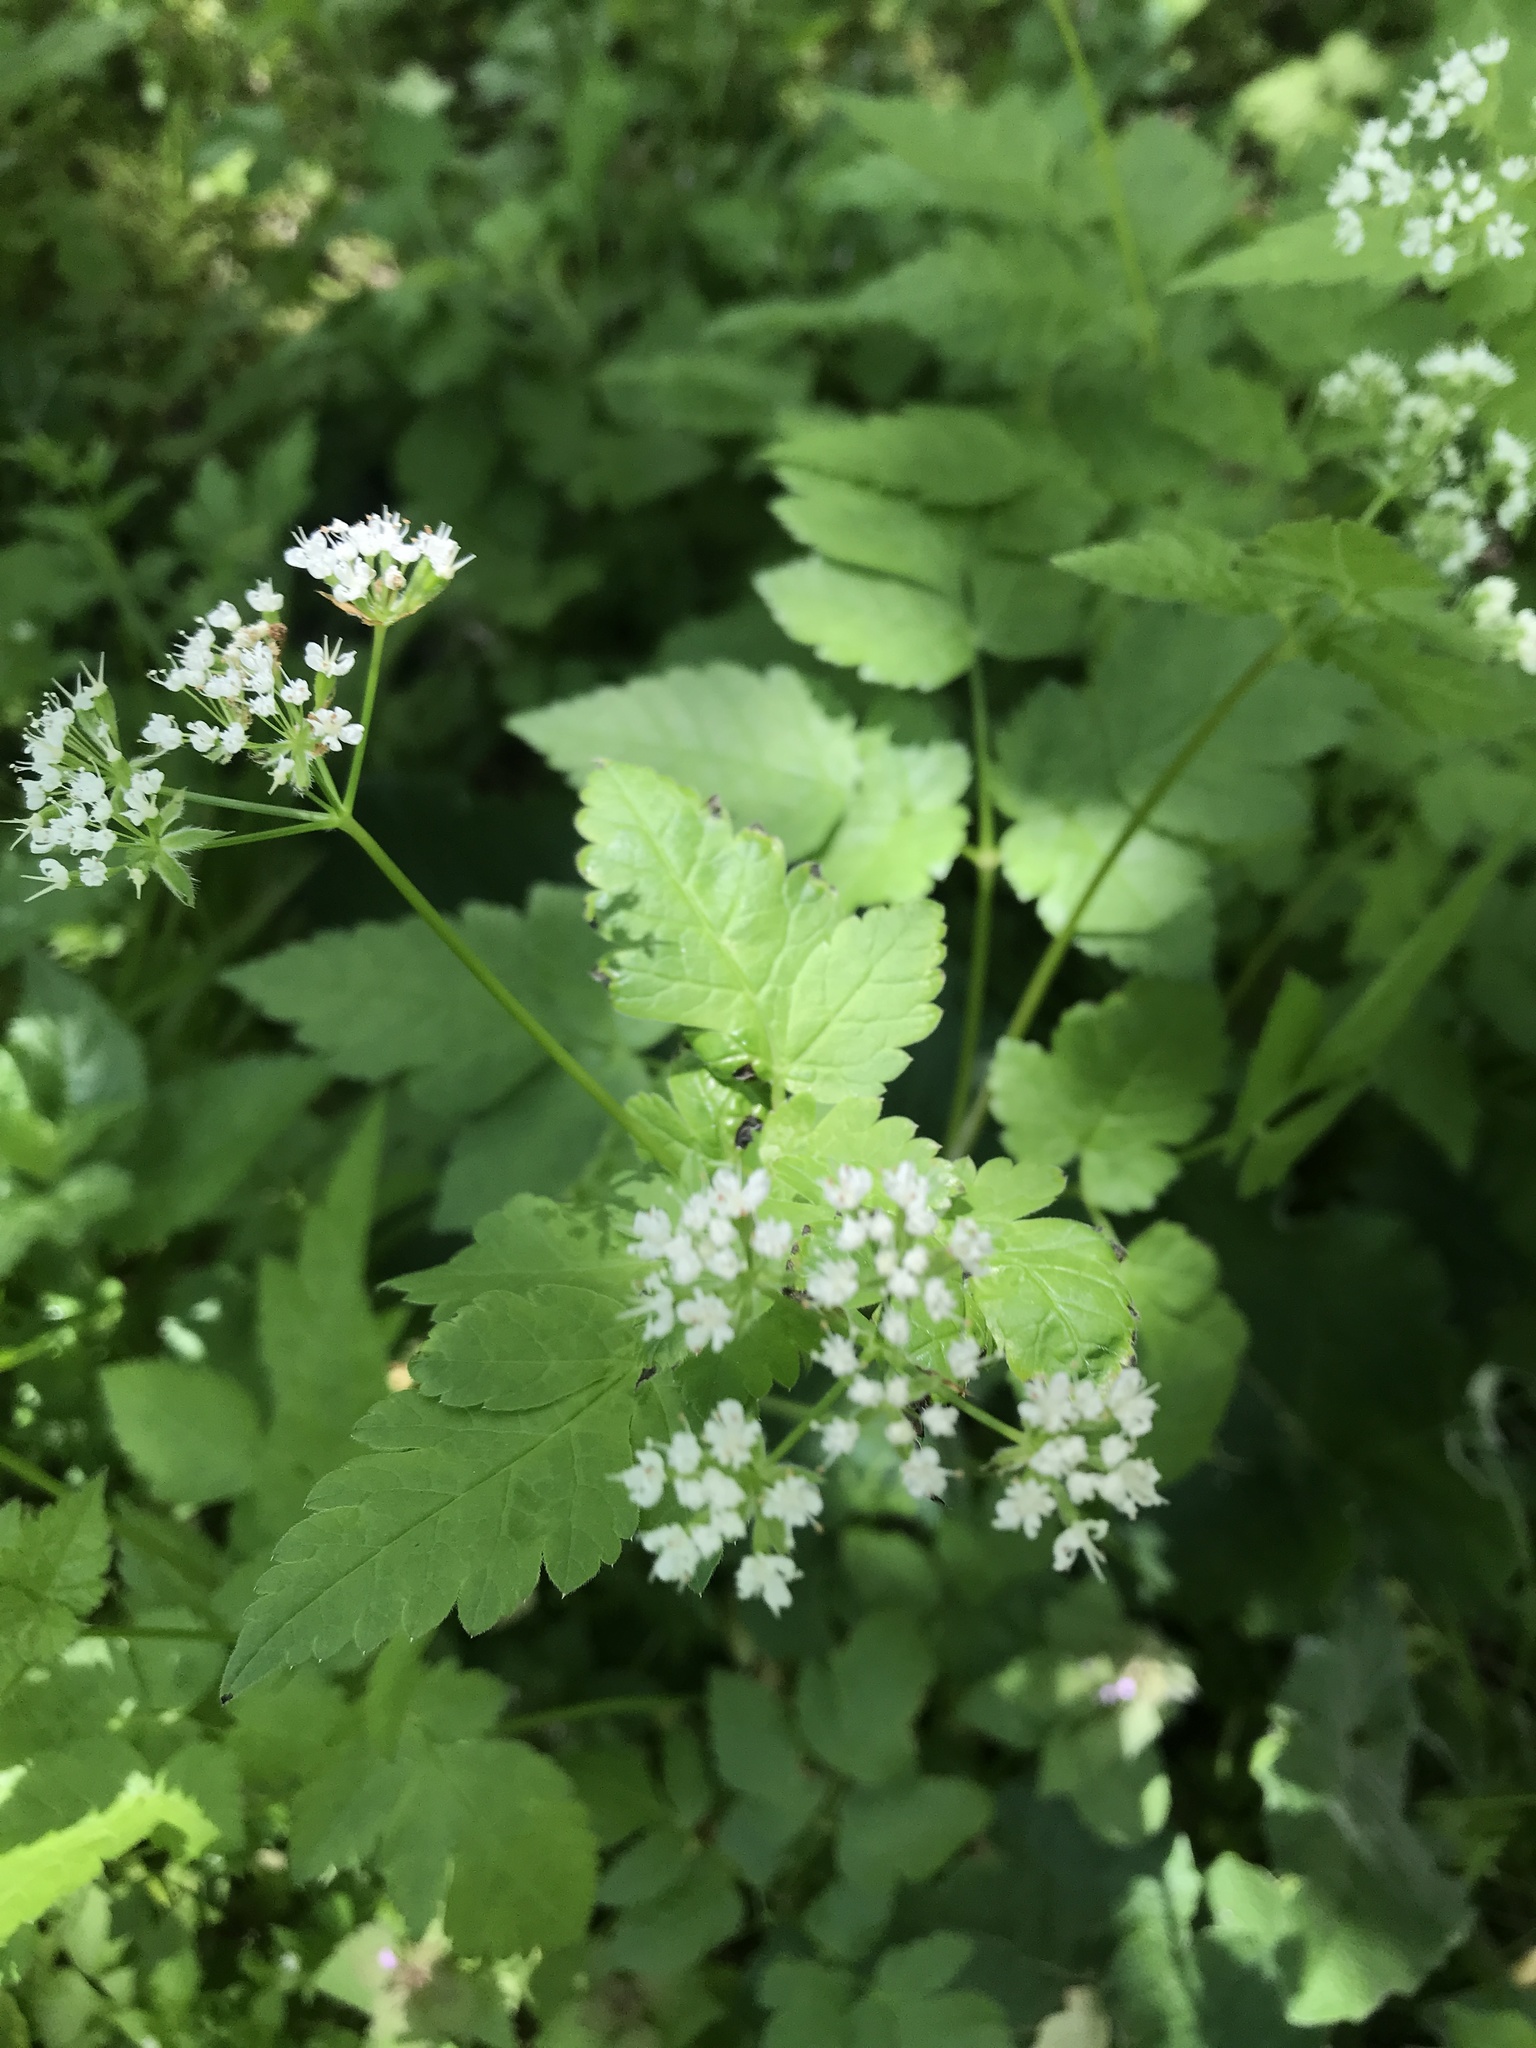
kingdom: Plantae
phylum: Tracheophyta
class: Magnoliopsida
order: Apiales
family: Apiaceae
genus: Osmorhiza
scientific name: Osmorhiza longistylis
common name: Smooth sweet cicely
